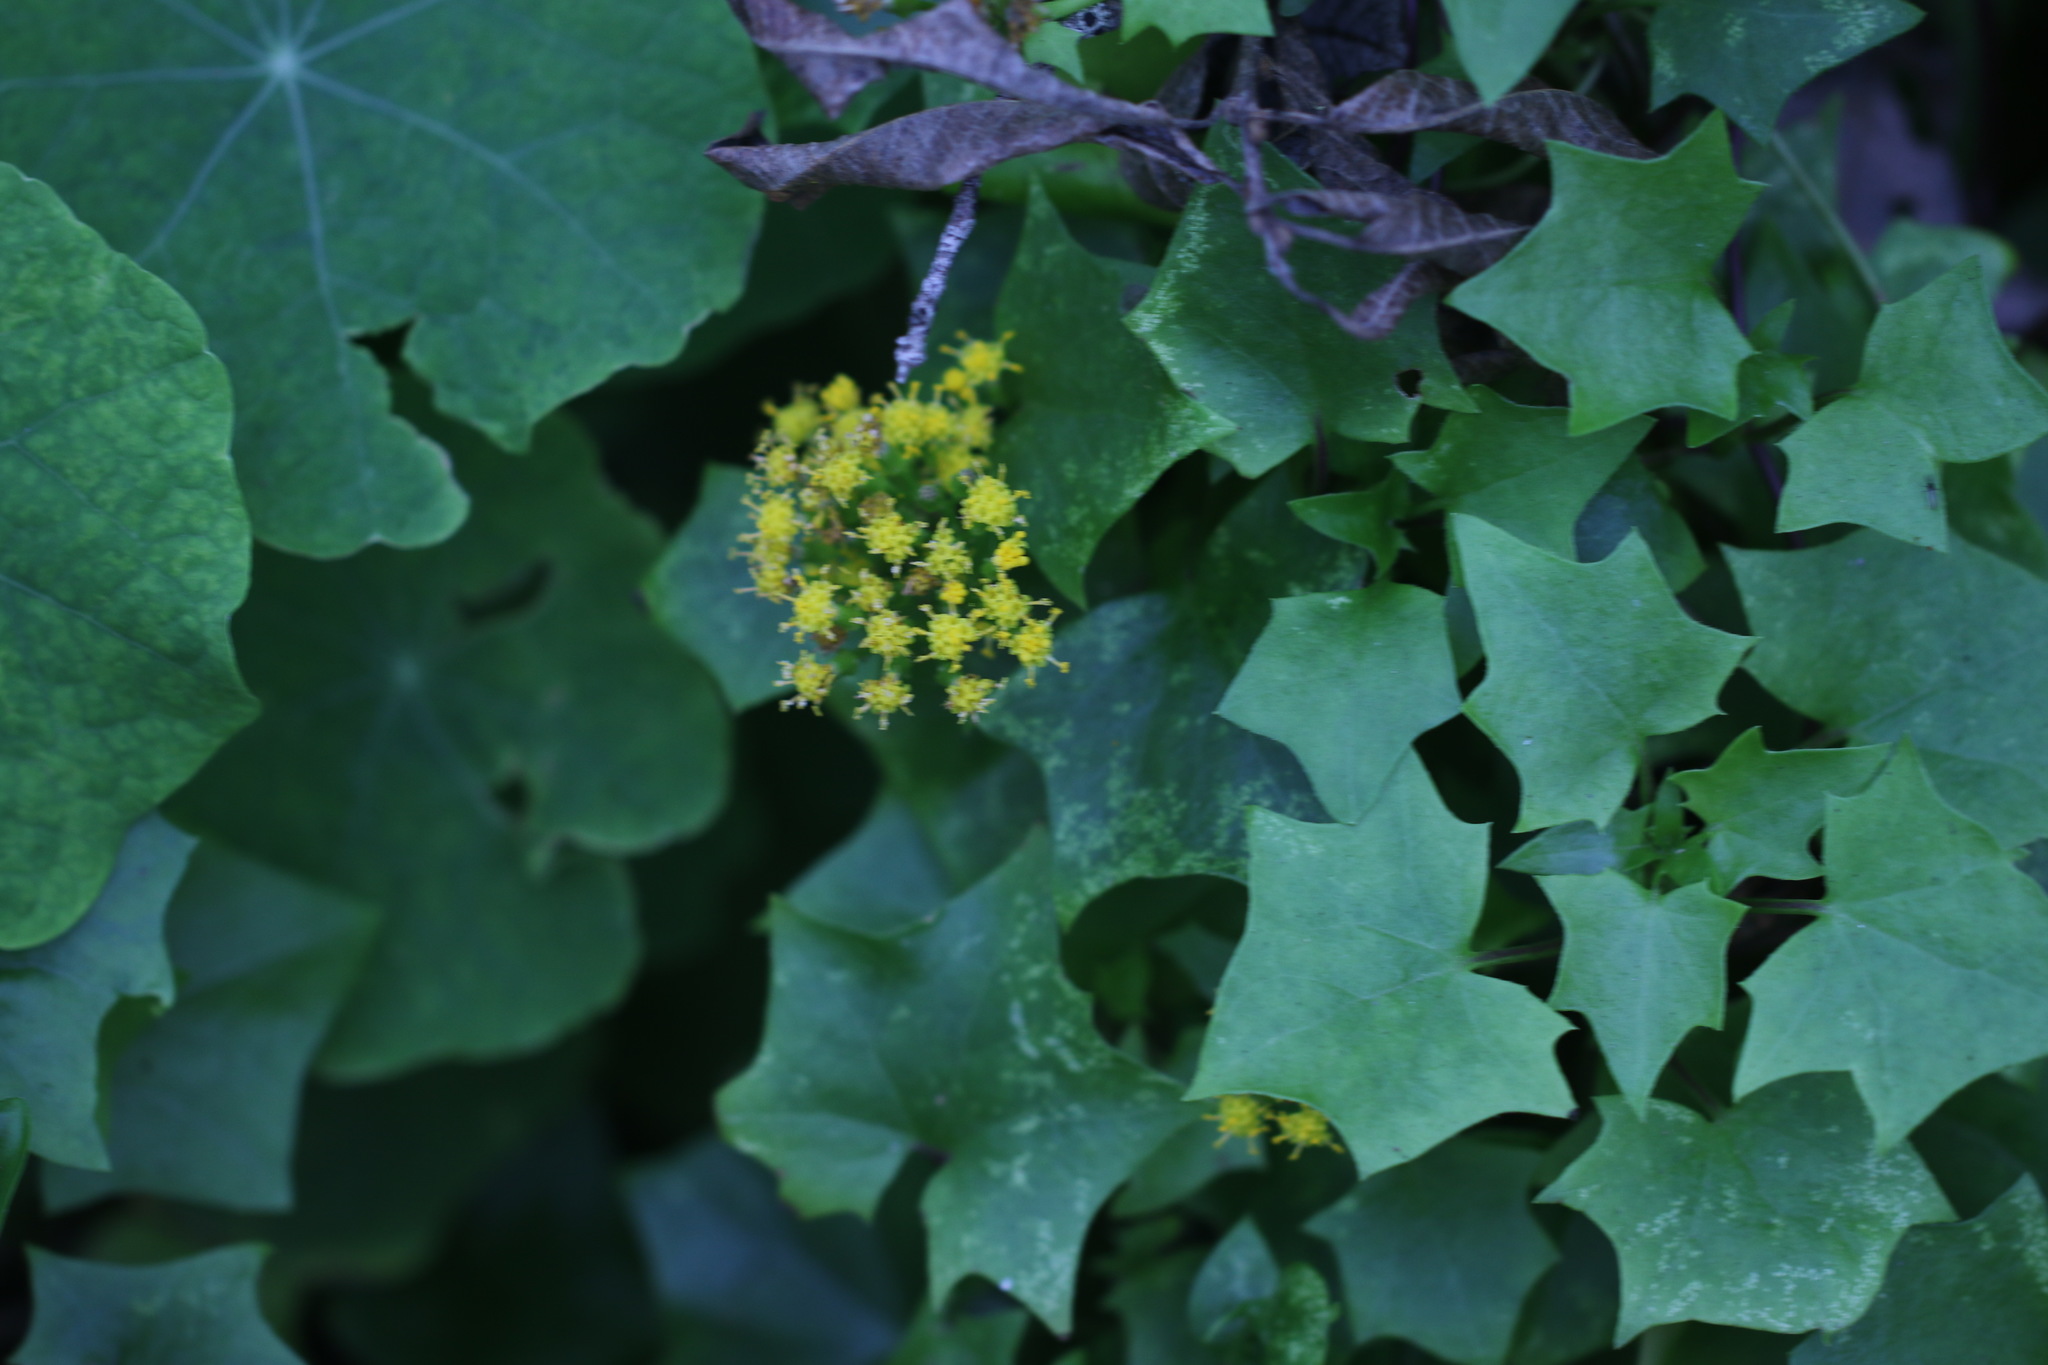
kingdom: Plantae
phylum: Tracheophyta
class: Magnoliopsida
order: Asterales
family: Asteraceae
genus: Delairea
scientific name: Delairea odorata
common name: Cape-ivy
